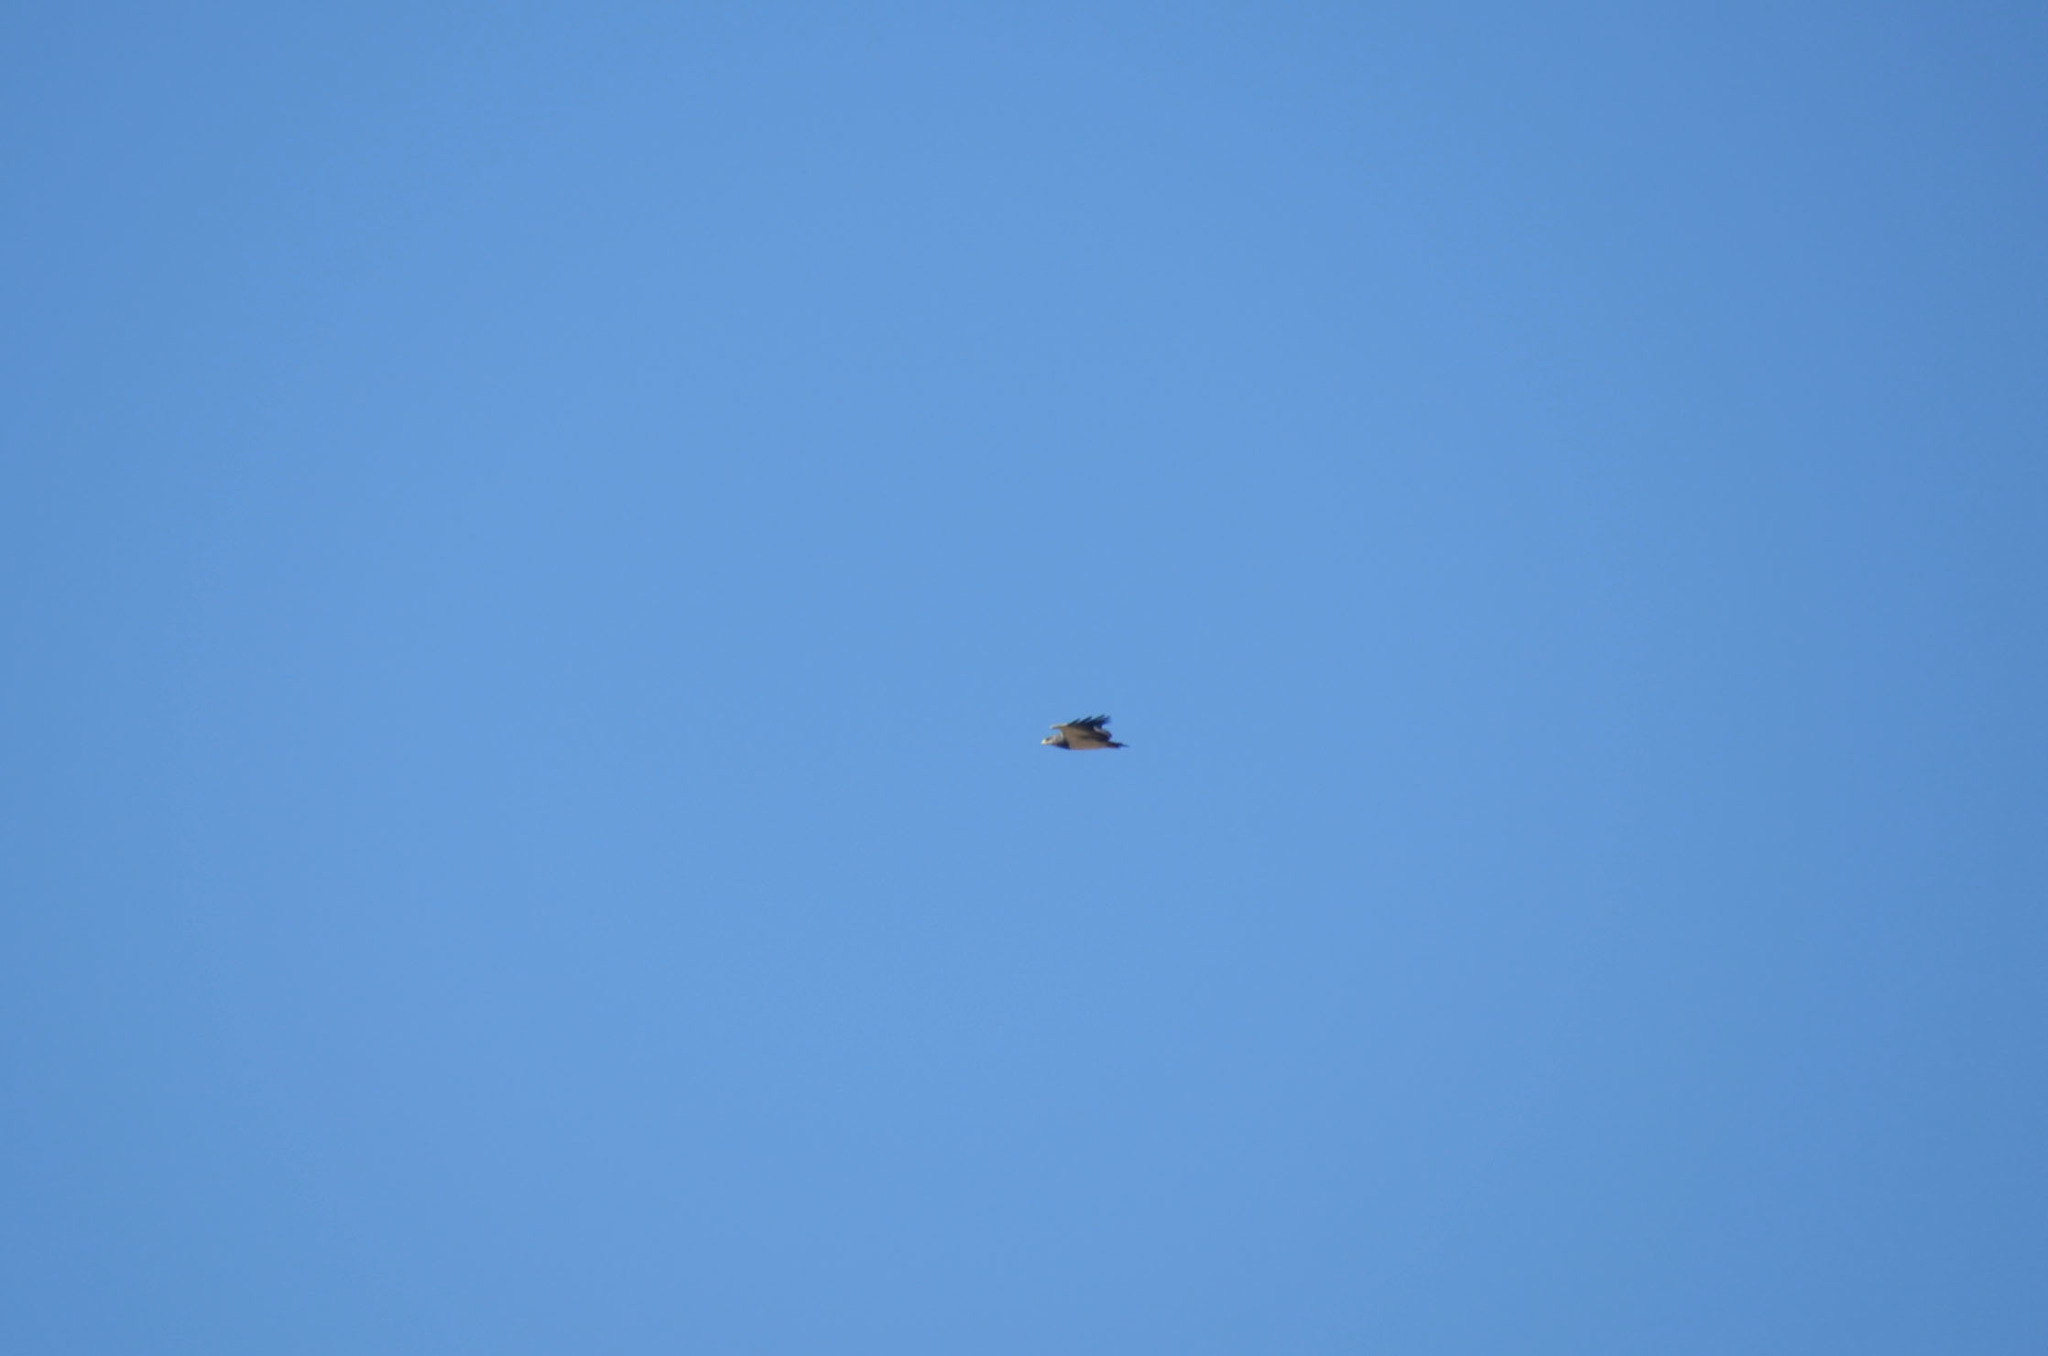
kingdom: Animalia
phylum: Chordata
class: Aves
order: Accipitriformes
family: Accipitridae
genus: Geranoaetus
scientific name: Geranoaetus melanoleucus
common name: Black-chested buzzard-eagle
